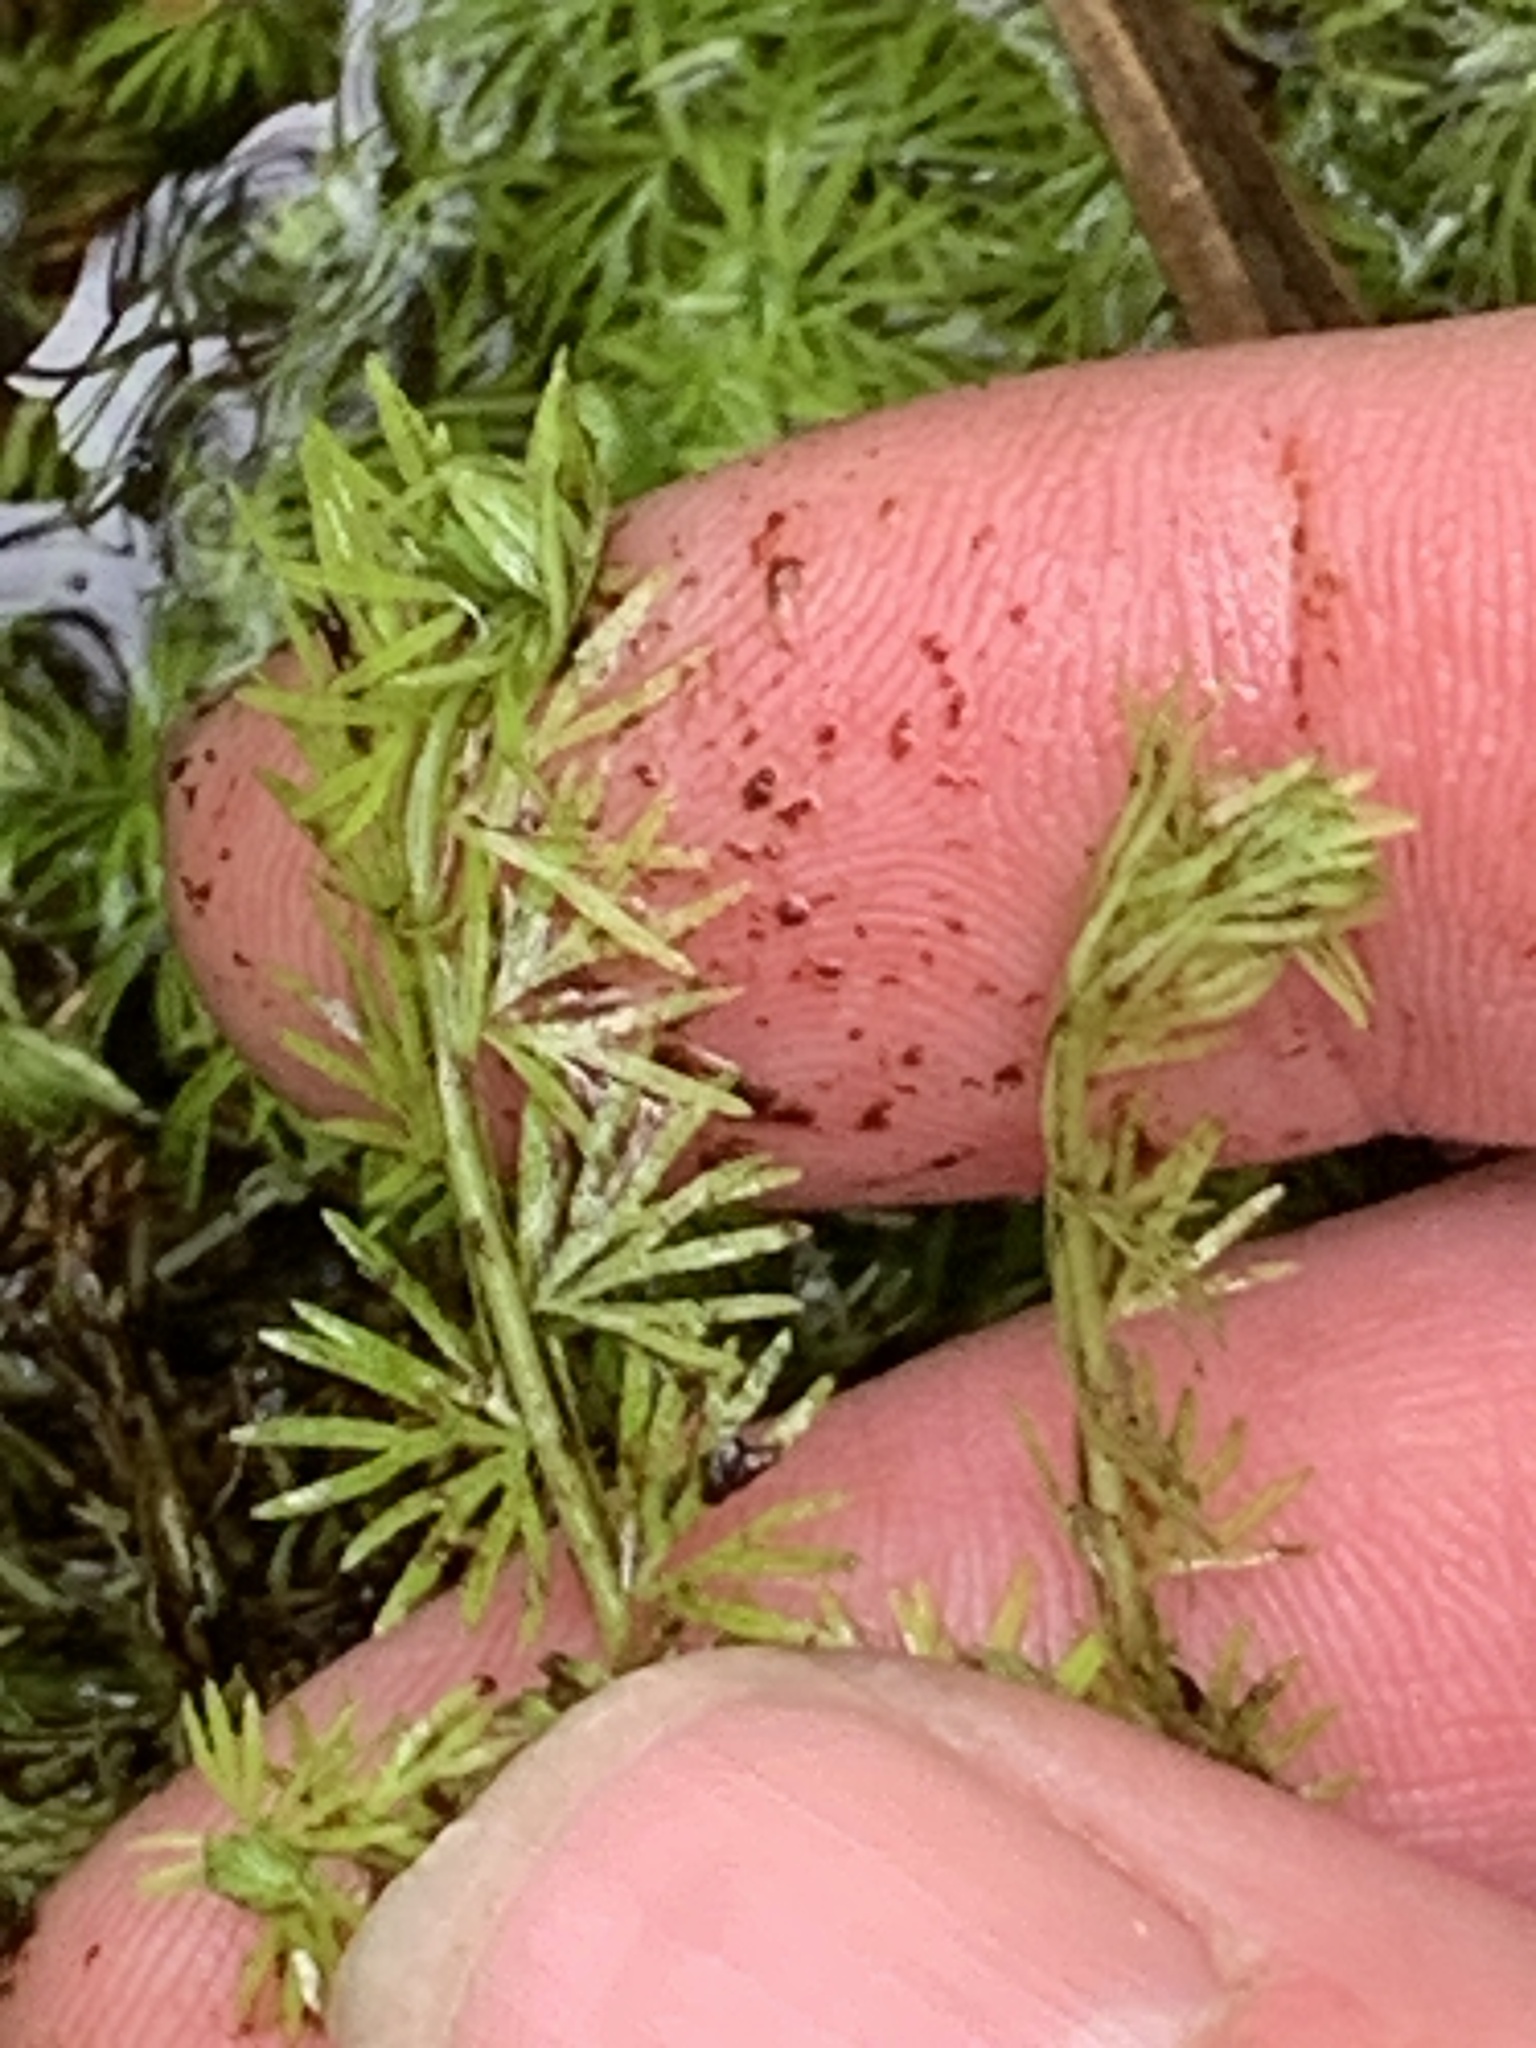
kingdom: Plantae
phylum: Tracheophyta
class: Magnoliopsida
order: Lamiales
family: Lentibulariaceae
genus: Utricularia
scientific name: Utricularia intermedia
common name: Intermediate bladderwort
